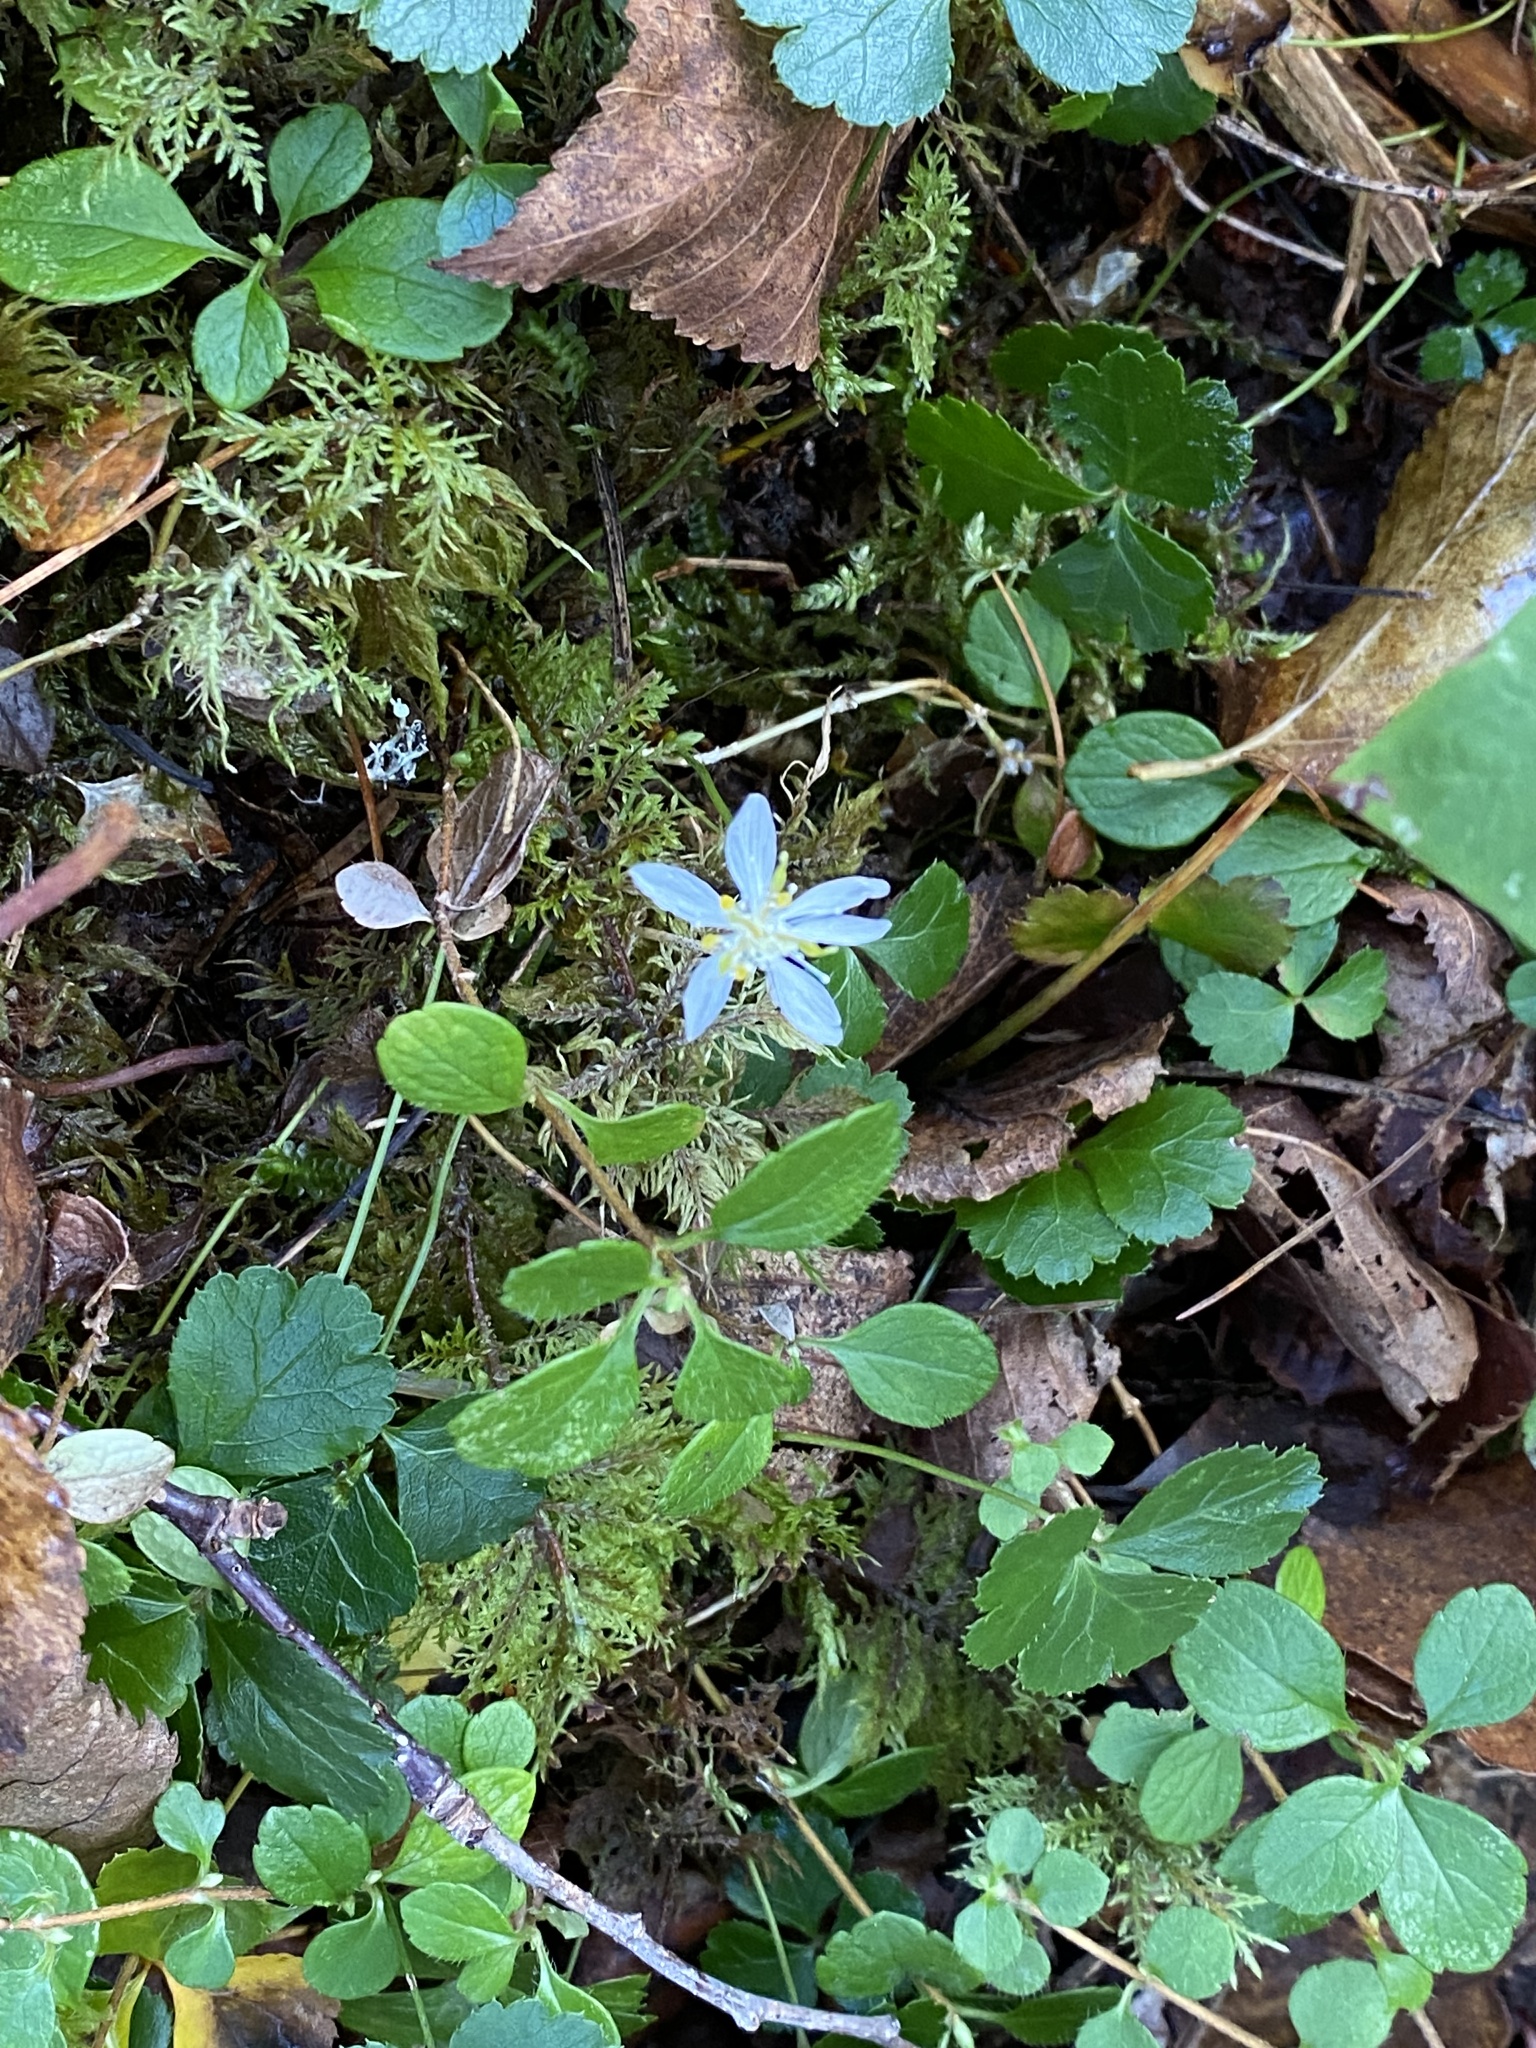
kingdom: Plantae
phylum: Tracheophyta
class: Magnoliopsida
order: Ranunculales
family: Ranunculaceae
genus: Coptis
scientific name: Coptis trifolia
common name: Canker-root
